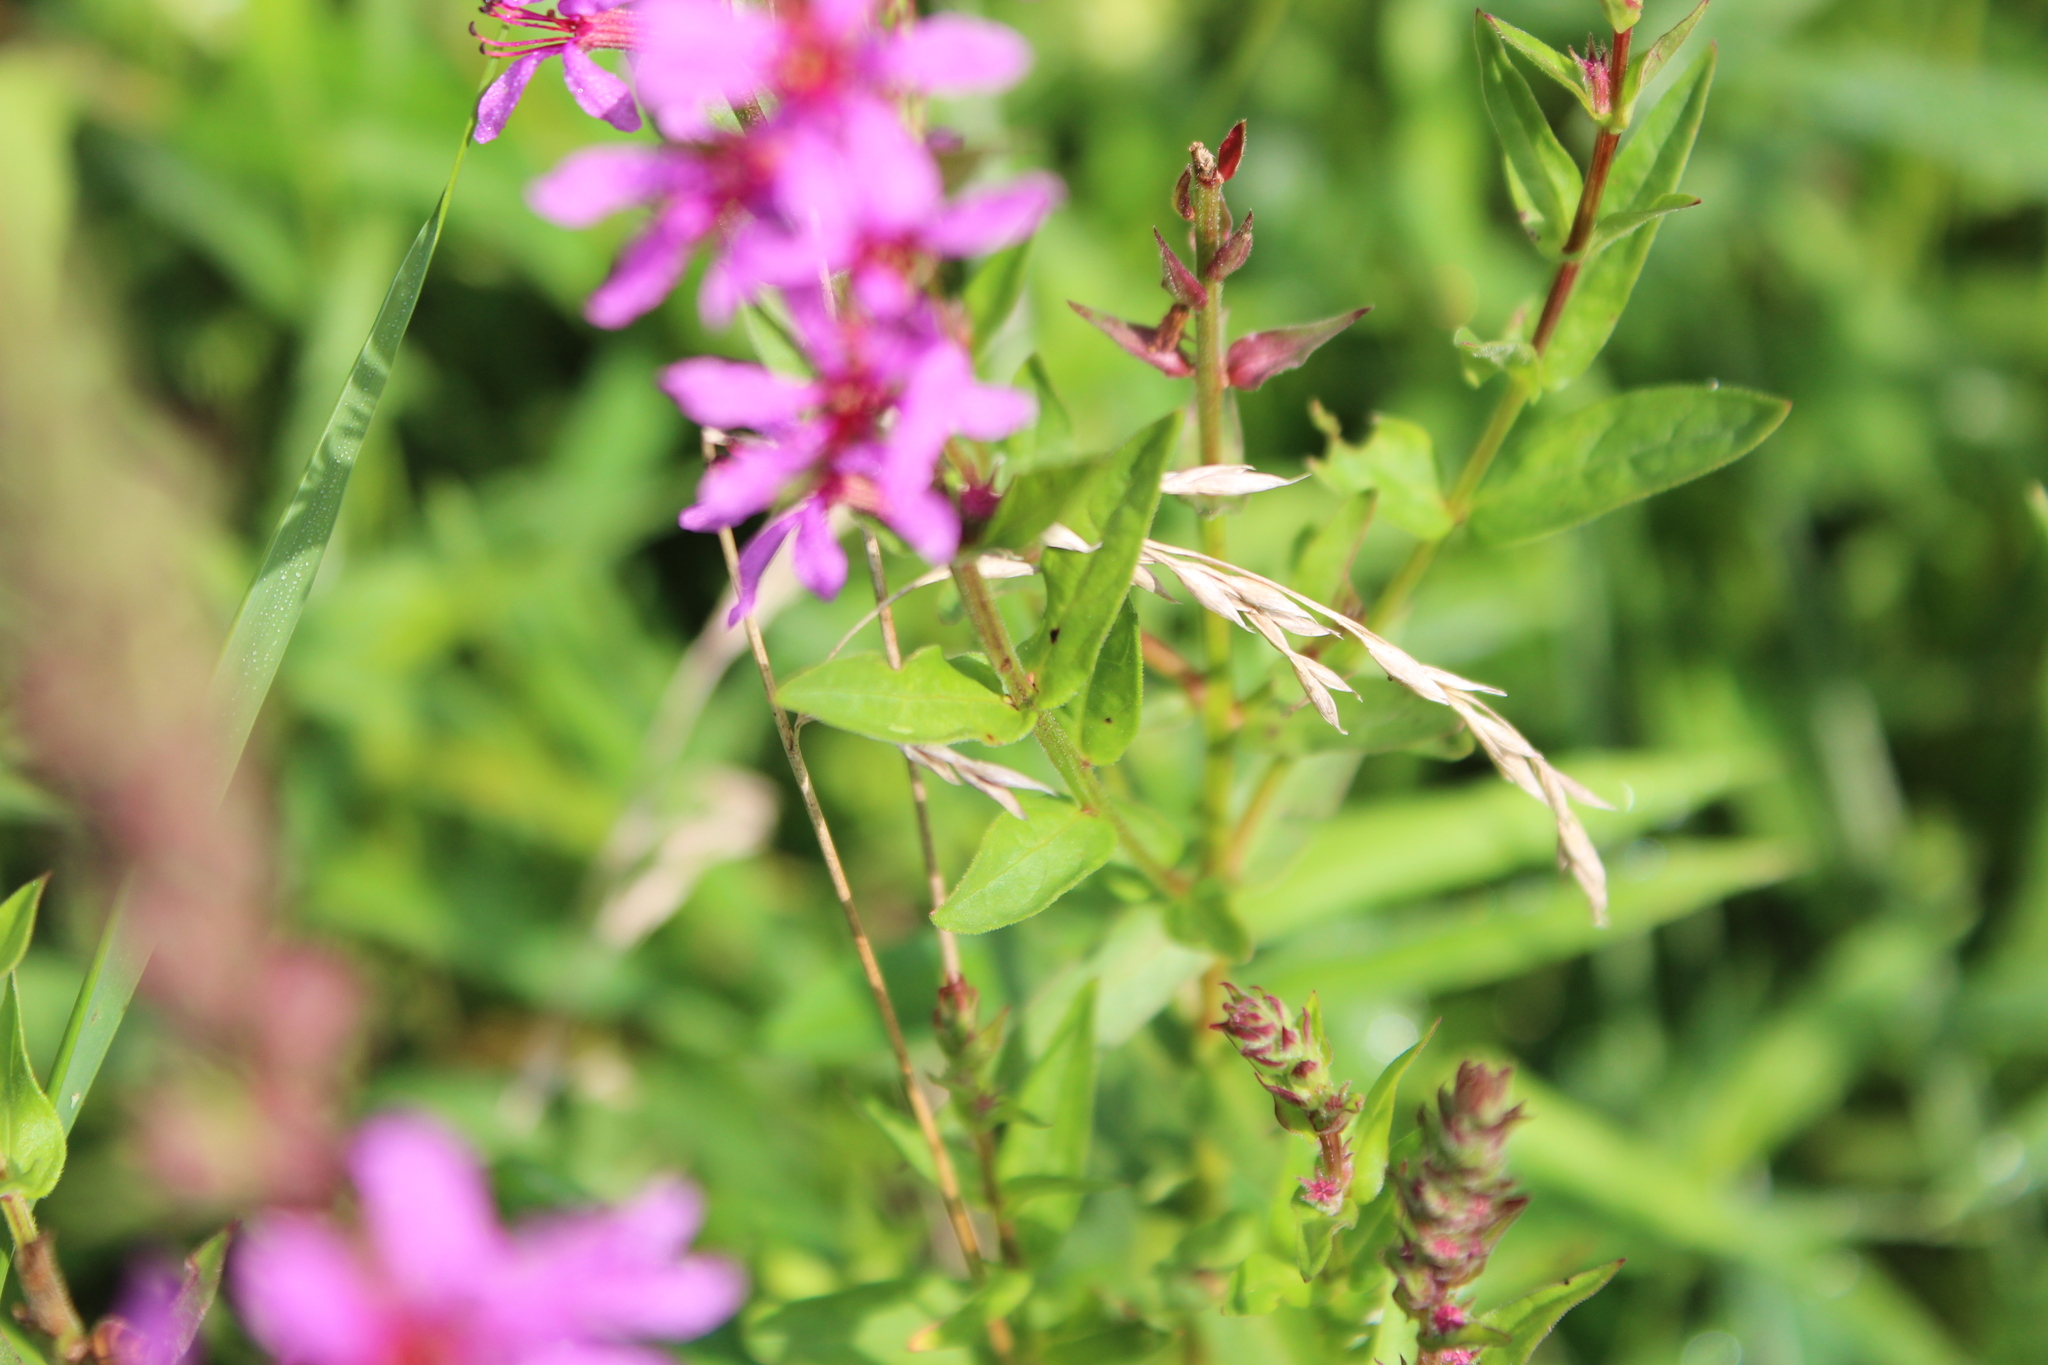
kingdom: Plantae
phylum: Tracheophyta
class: Magnoliopsida
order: Myrtales
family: Lythraceae
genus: Lythrum
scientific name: Lythrum salicaria
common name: Purple loosestrife
